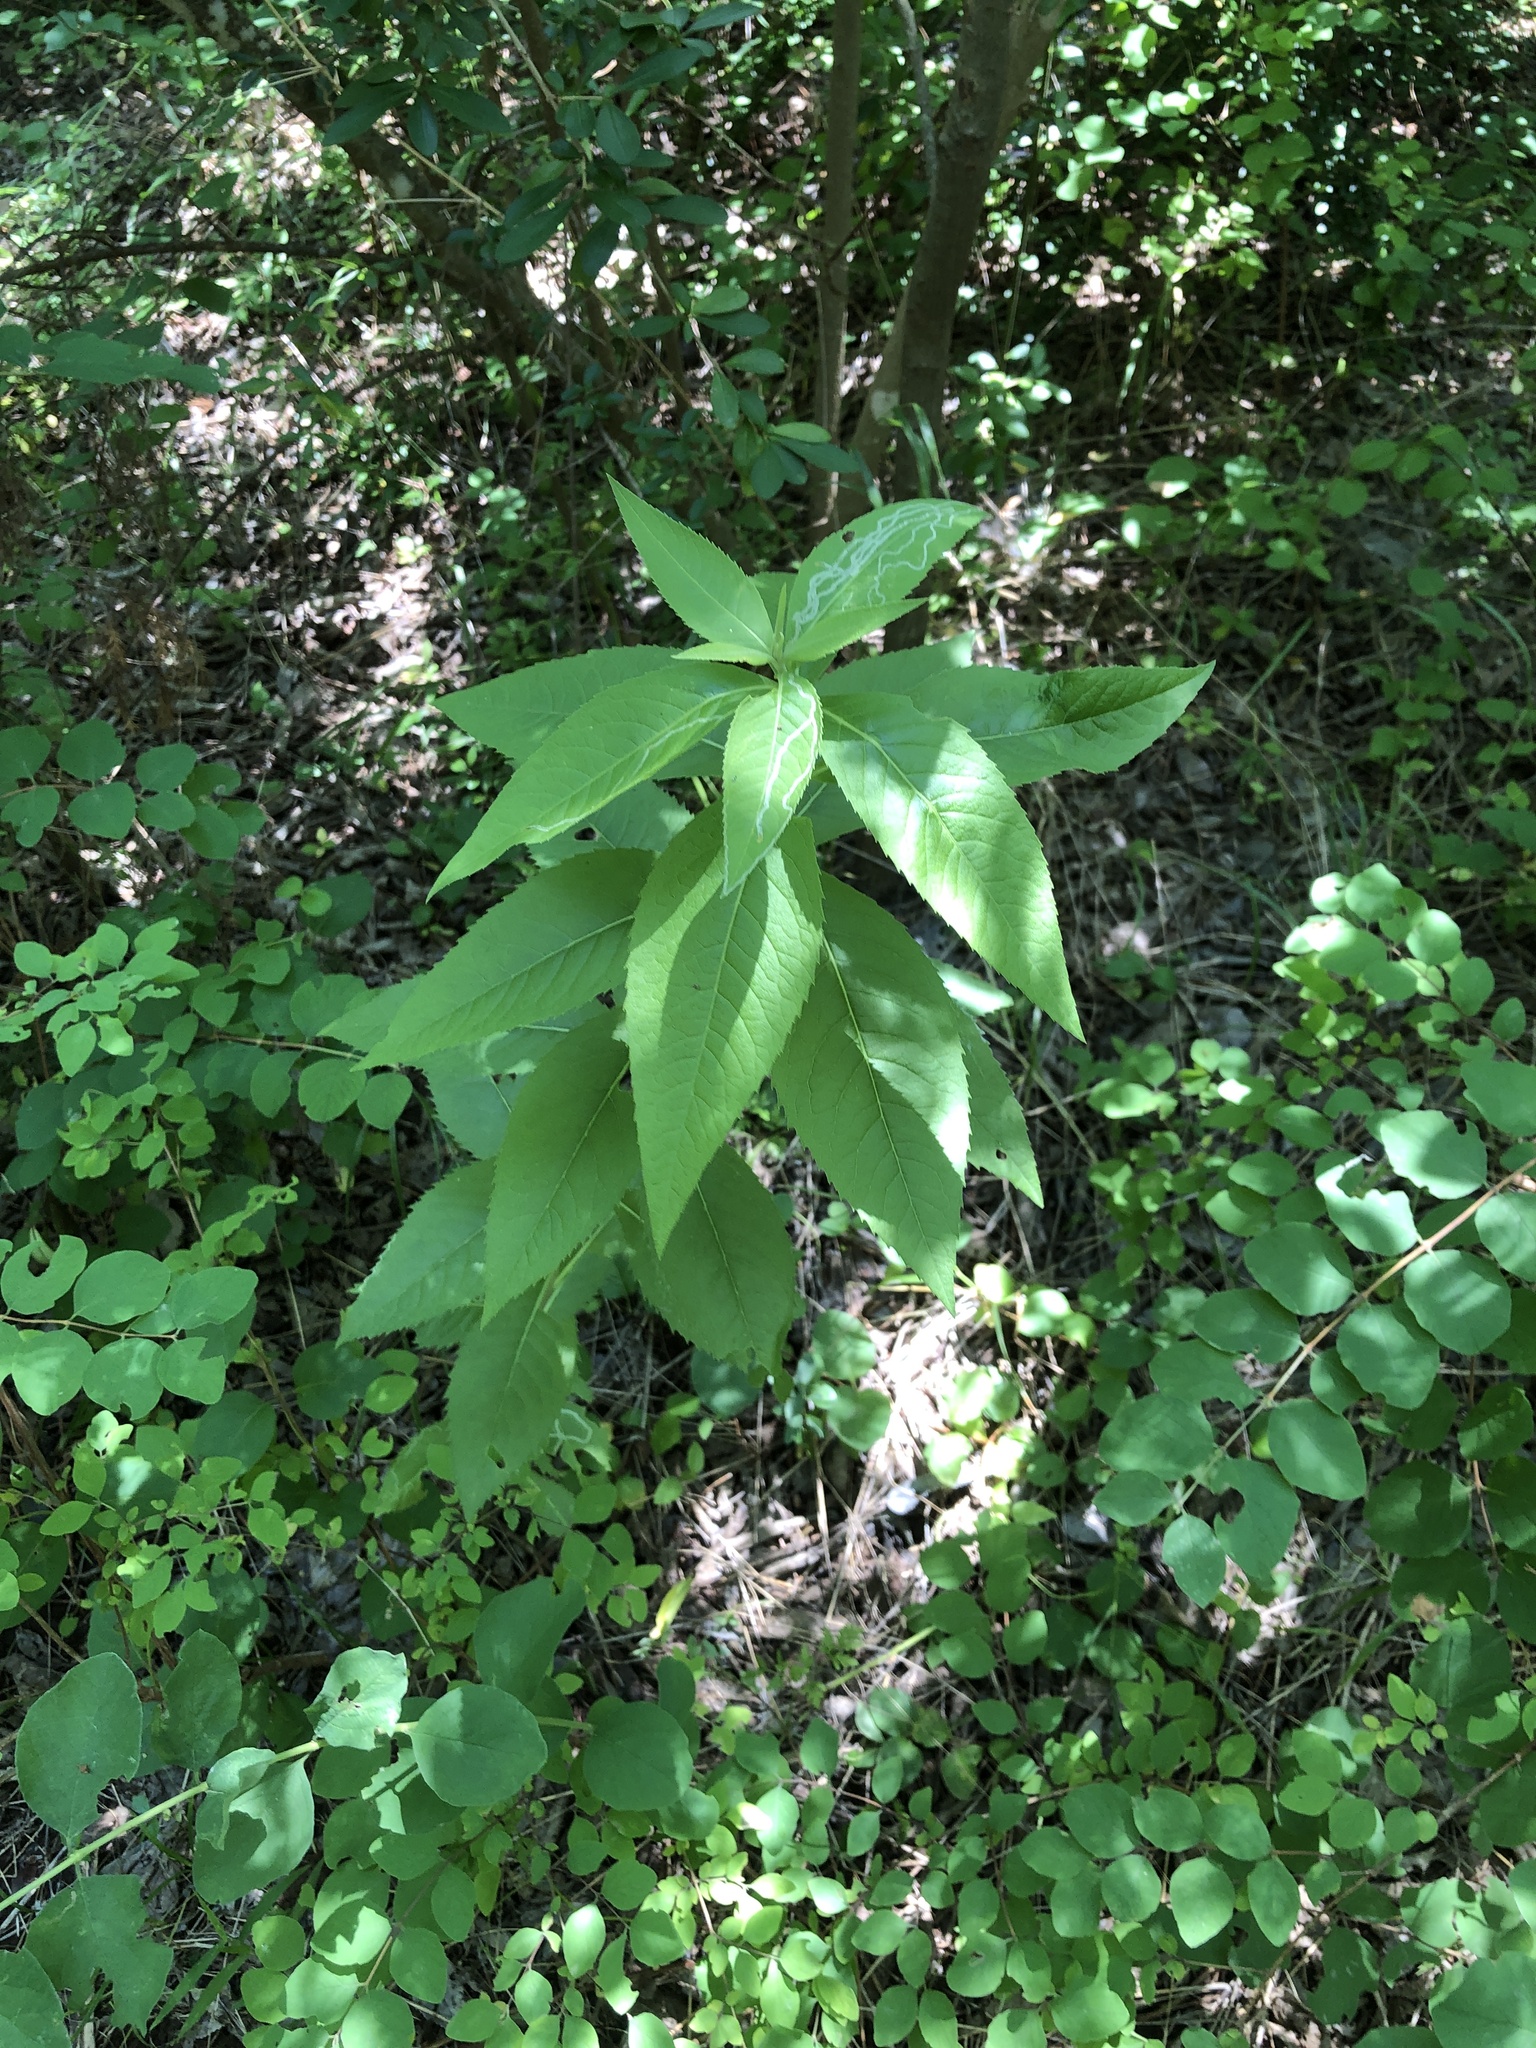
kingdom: Plantae
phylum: Tracheophyta
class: Magnoliopsida
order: Asterales
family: Asteraceae
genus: Vernonia
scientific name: Vernonia baldwinii
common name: Western ironweed
